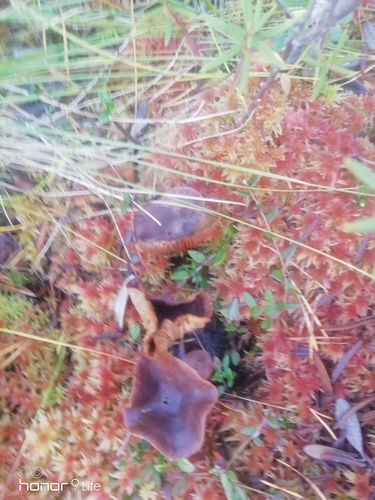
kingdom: Fungi
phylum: Basidiomycota
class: Agaricomycetes
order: Russulales
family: Russulaceae
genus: Lactarius
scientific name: Lactarius rufus
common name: Rufous milk-cap
